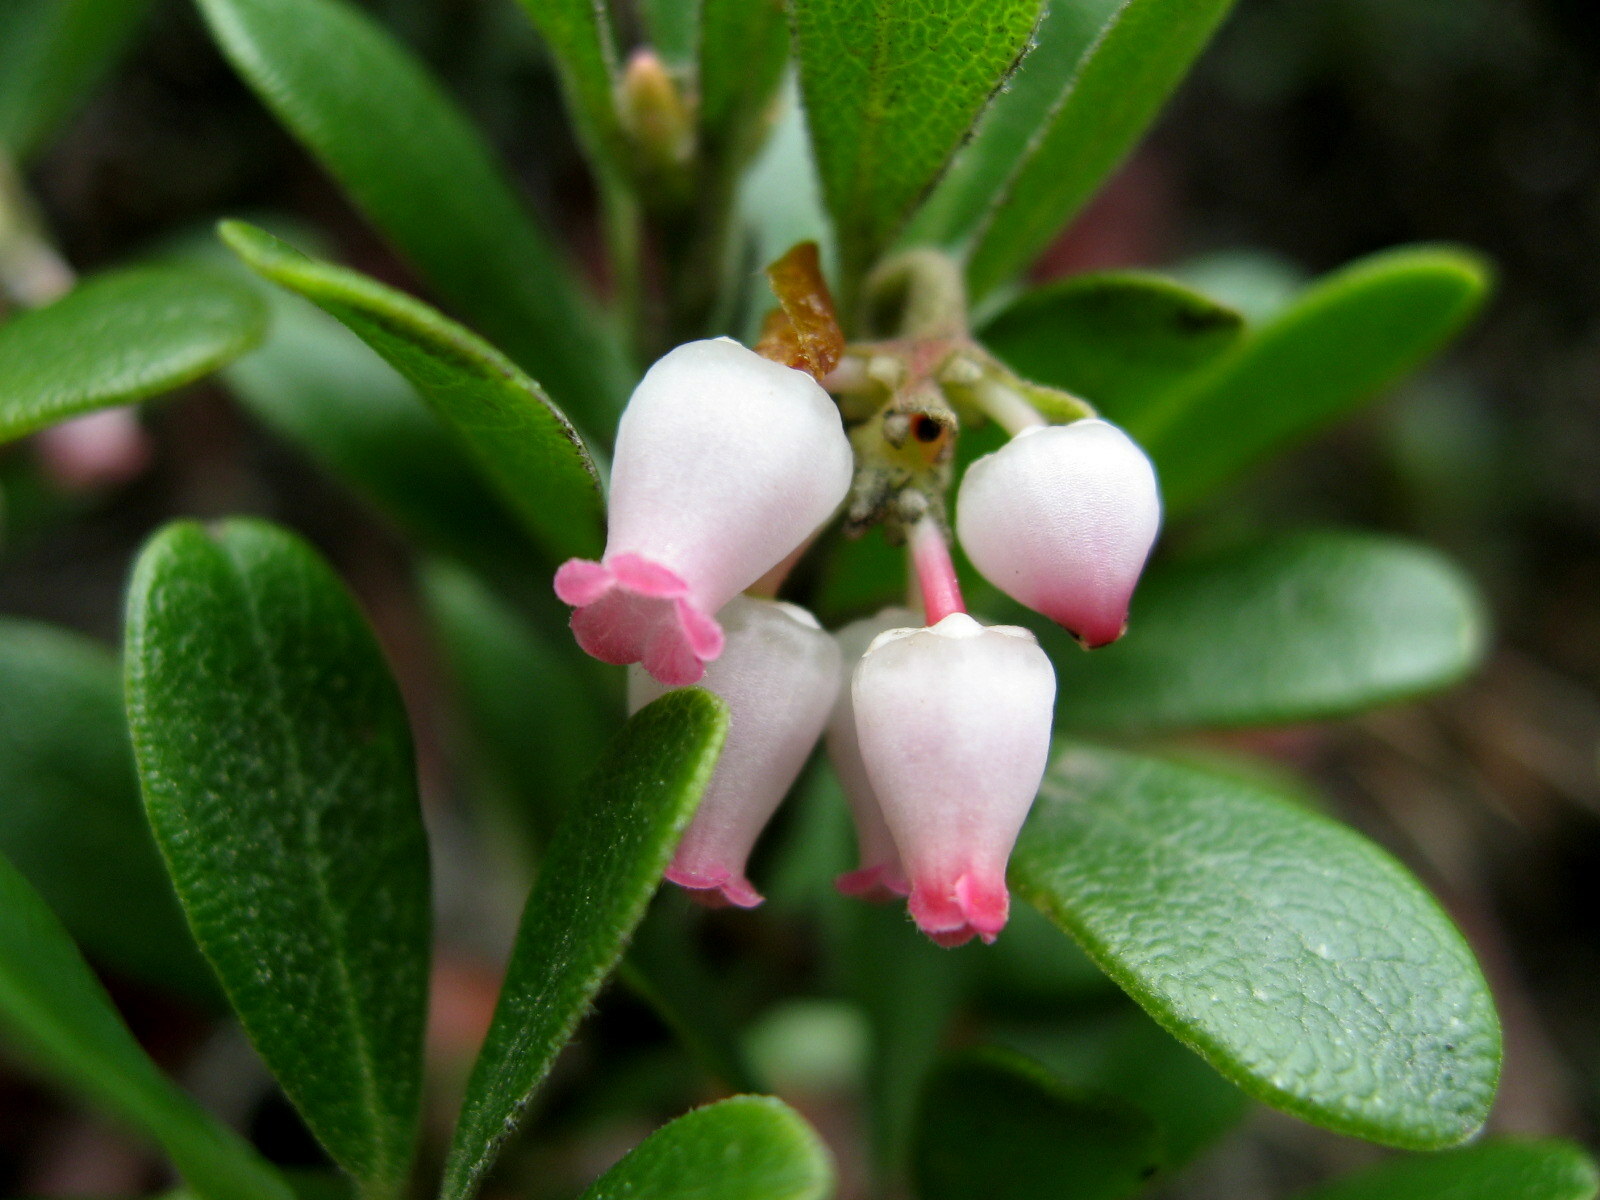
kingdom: Plantae
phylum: Tracheophyta
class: Magnoliopsida
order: Ericales
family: Ericaceae
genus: Arctostaphylos
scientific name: Arctostaphylos uva-ursi
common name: Bearberry
